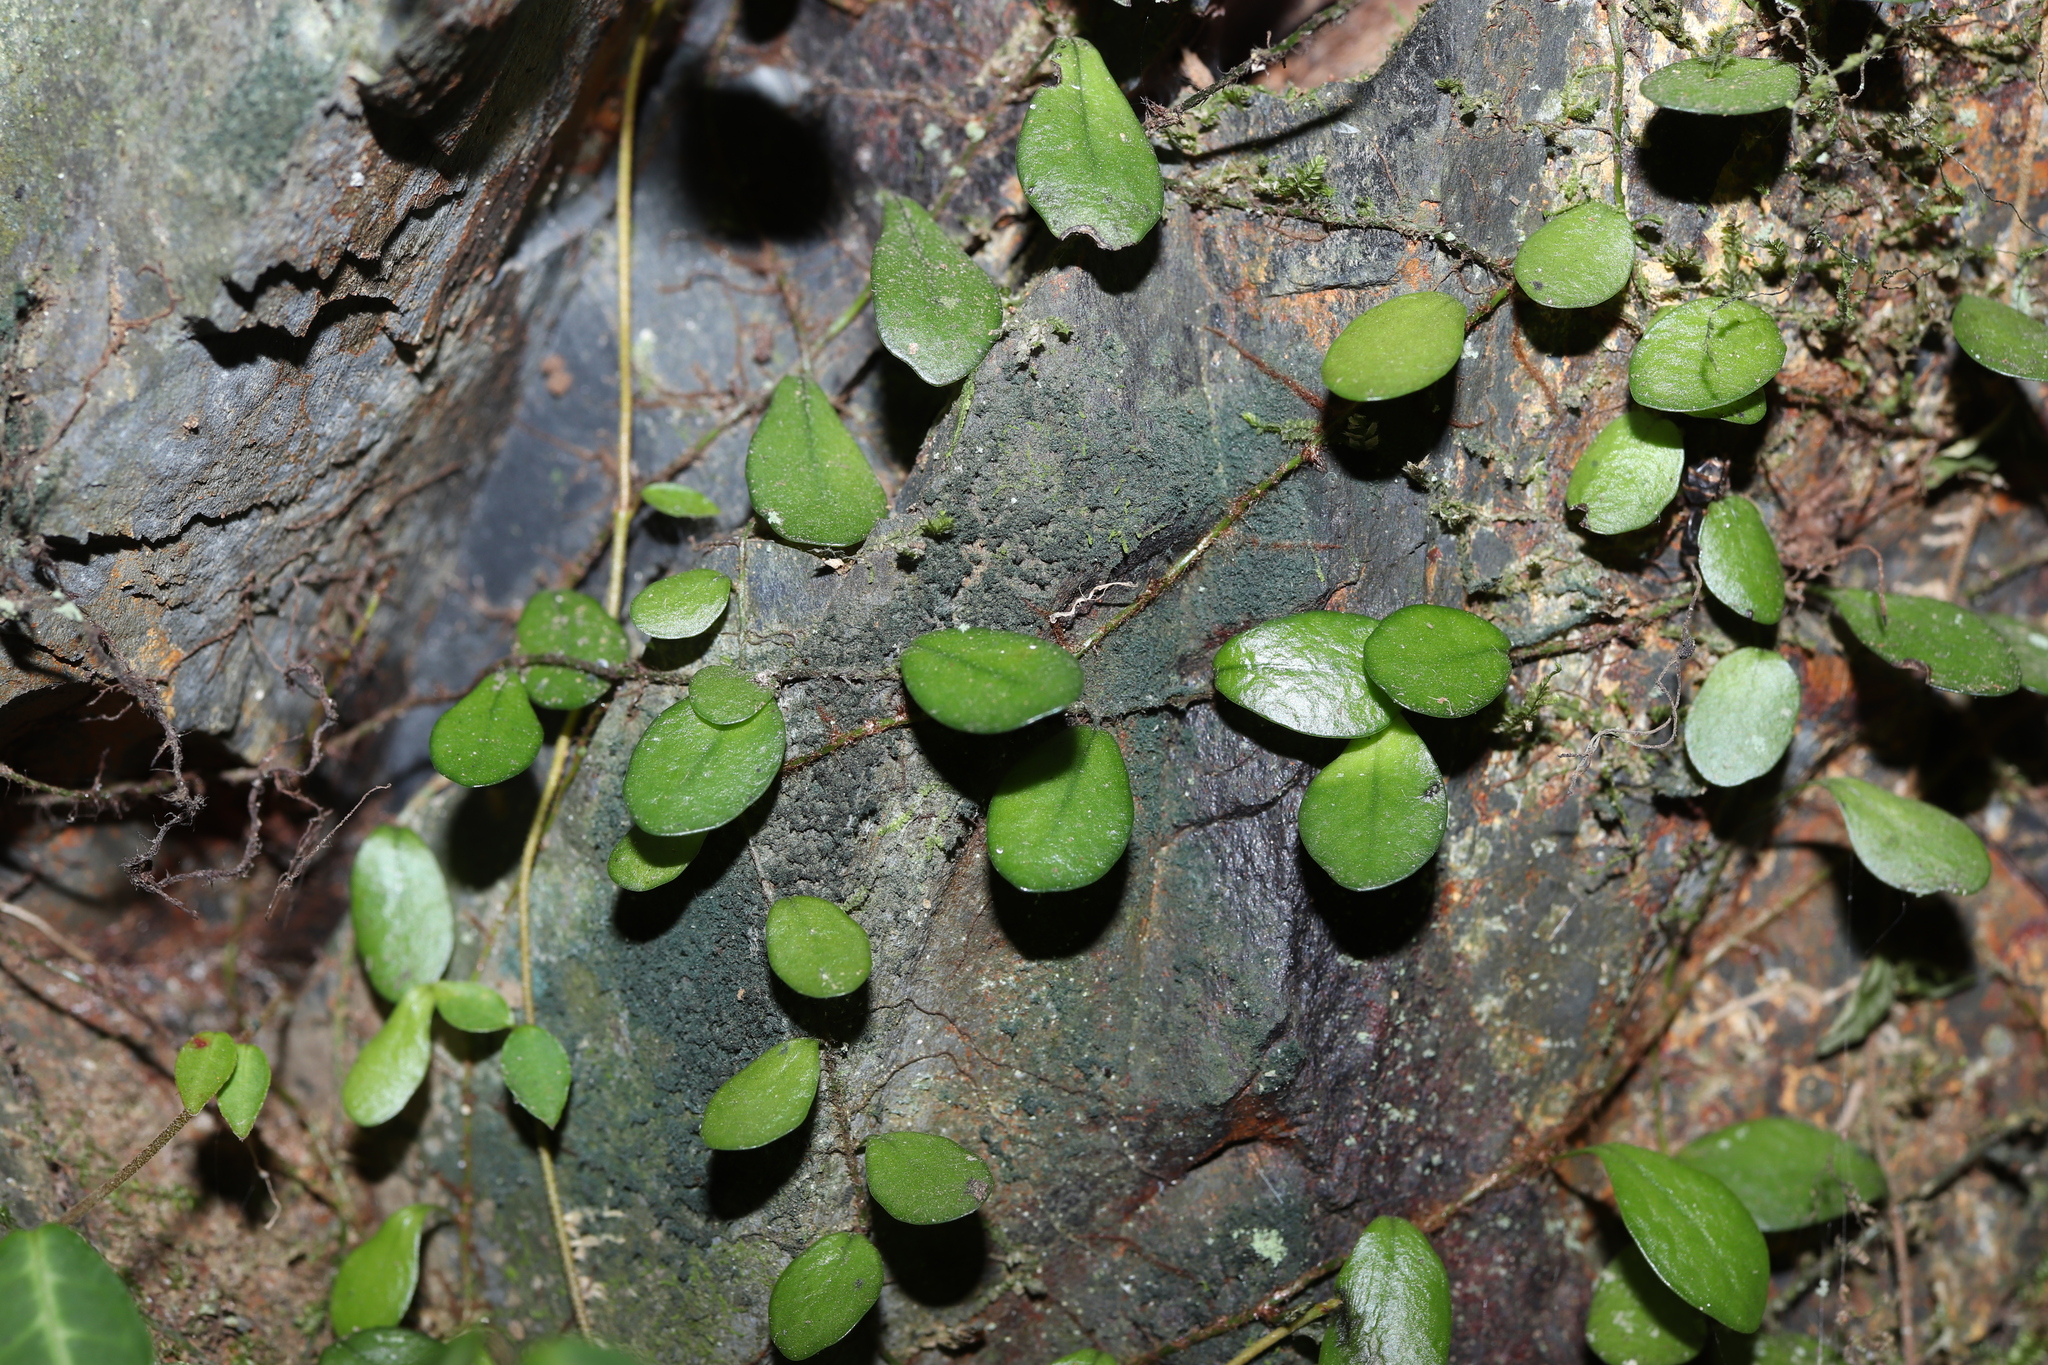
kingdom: Plantae
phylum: Tracheophyta
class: Polypodiopsida
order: Polypodiales
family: Polypodiaceae
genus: Lepisorus
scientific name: Lepisorus microphyllus
